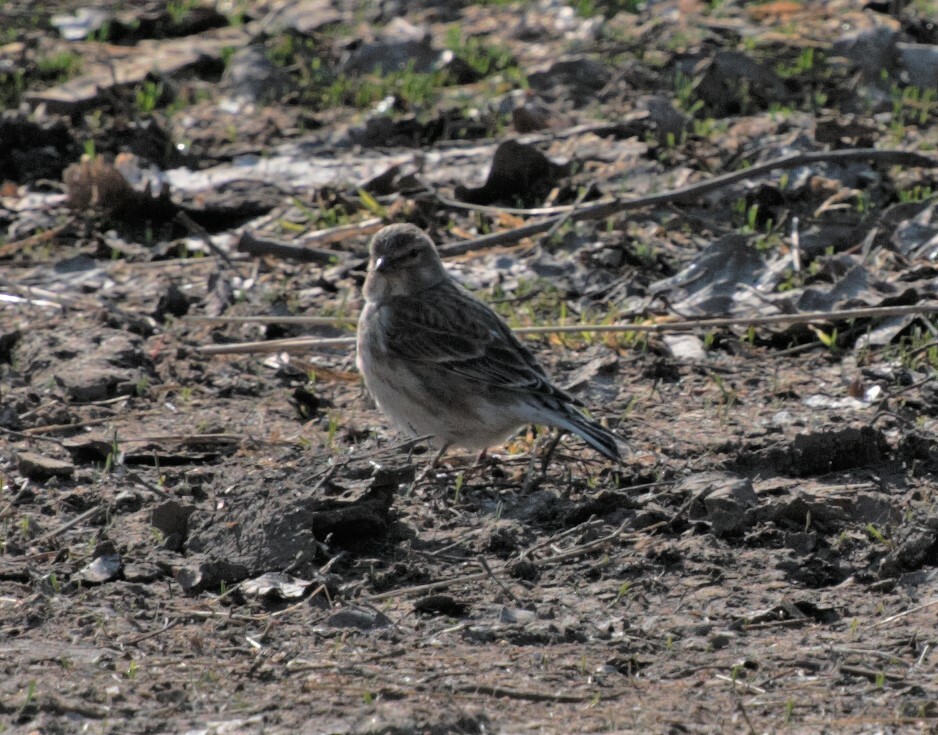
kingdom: Animalia
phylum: Chordata
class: Aves
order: Passeriformes
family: Fringillidae
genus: Linaria
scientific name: Linaria cannabina
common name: Common linnet
